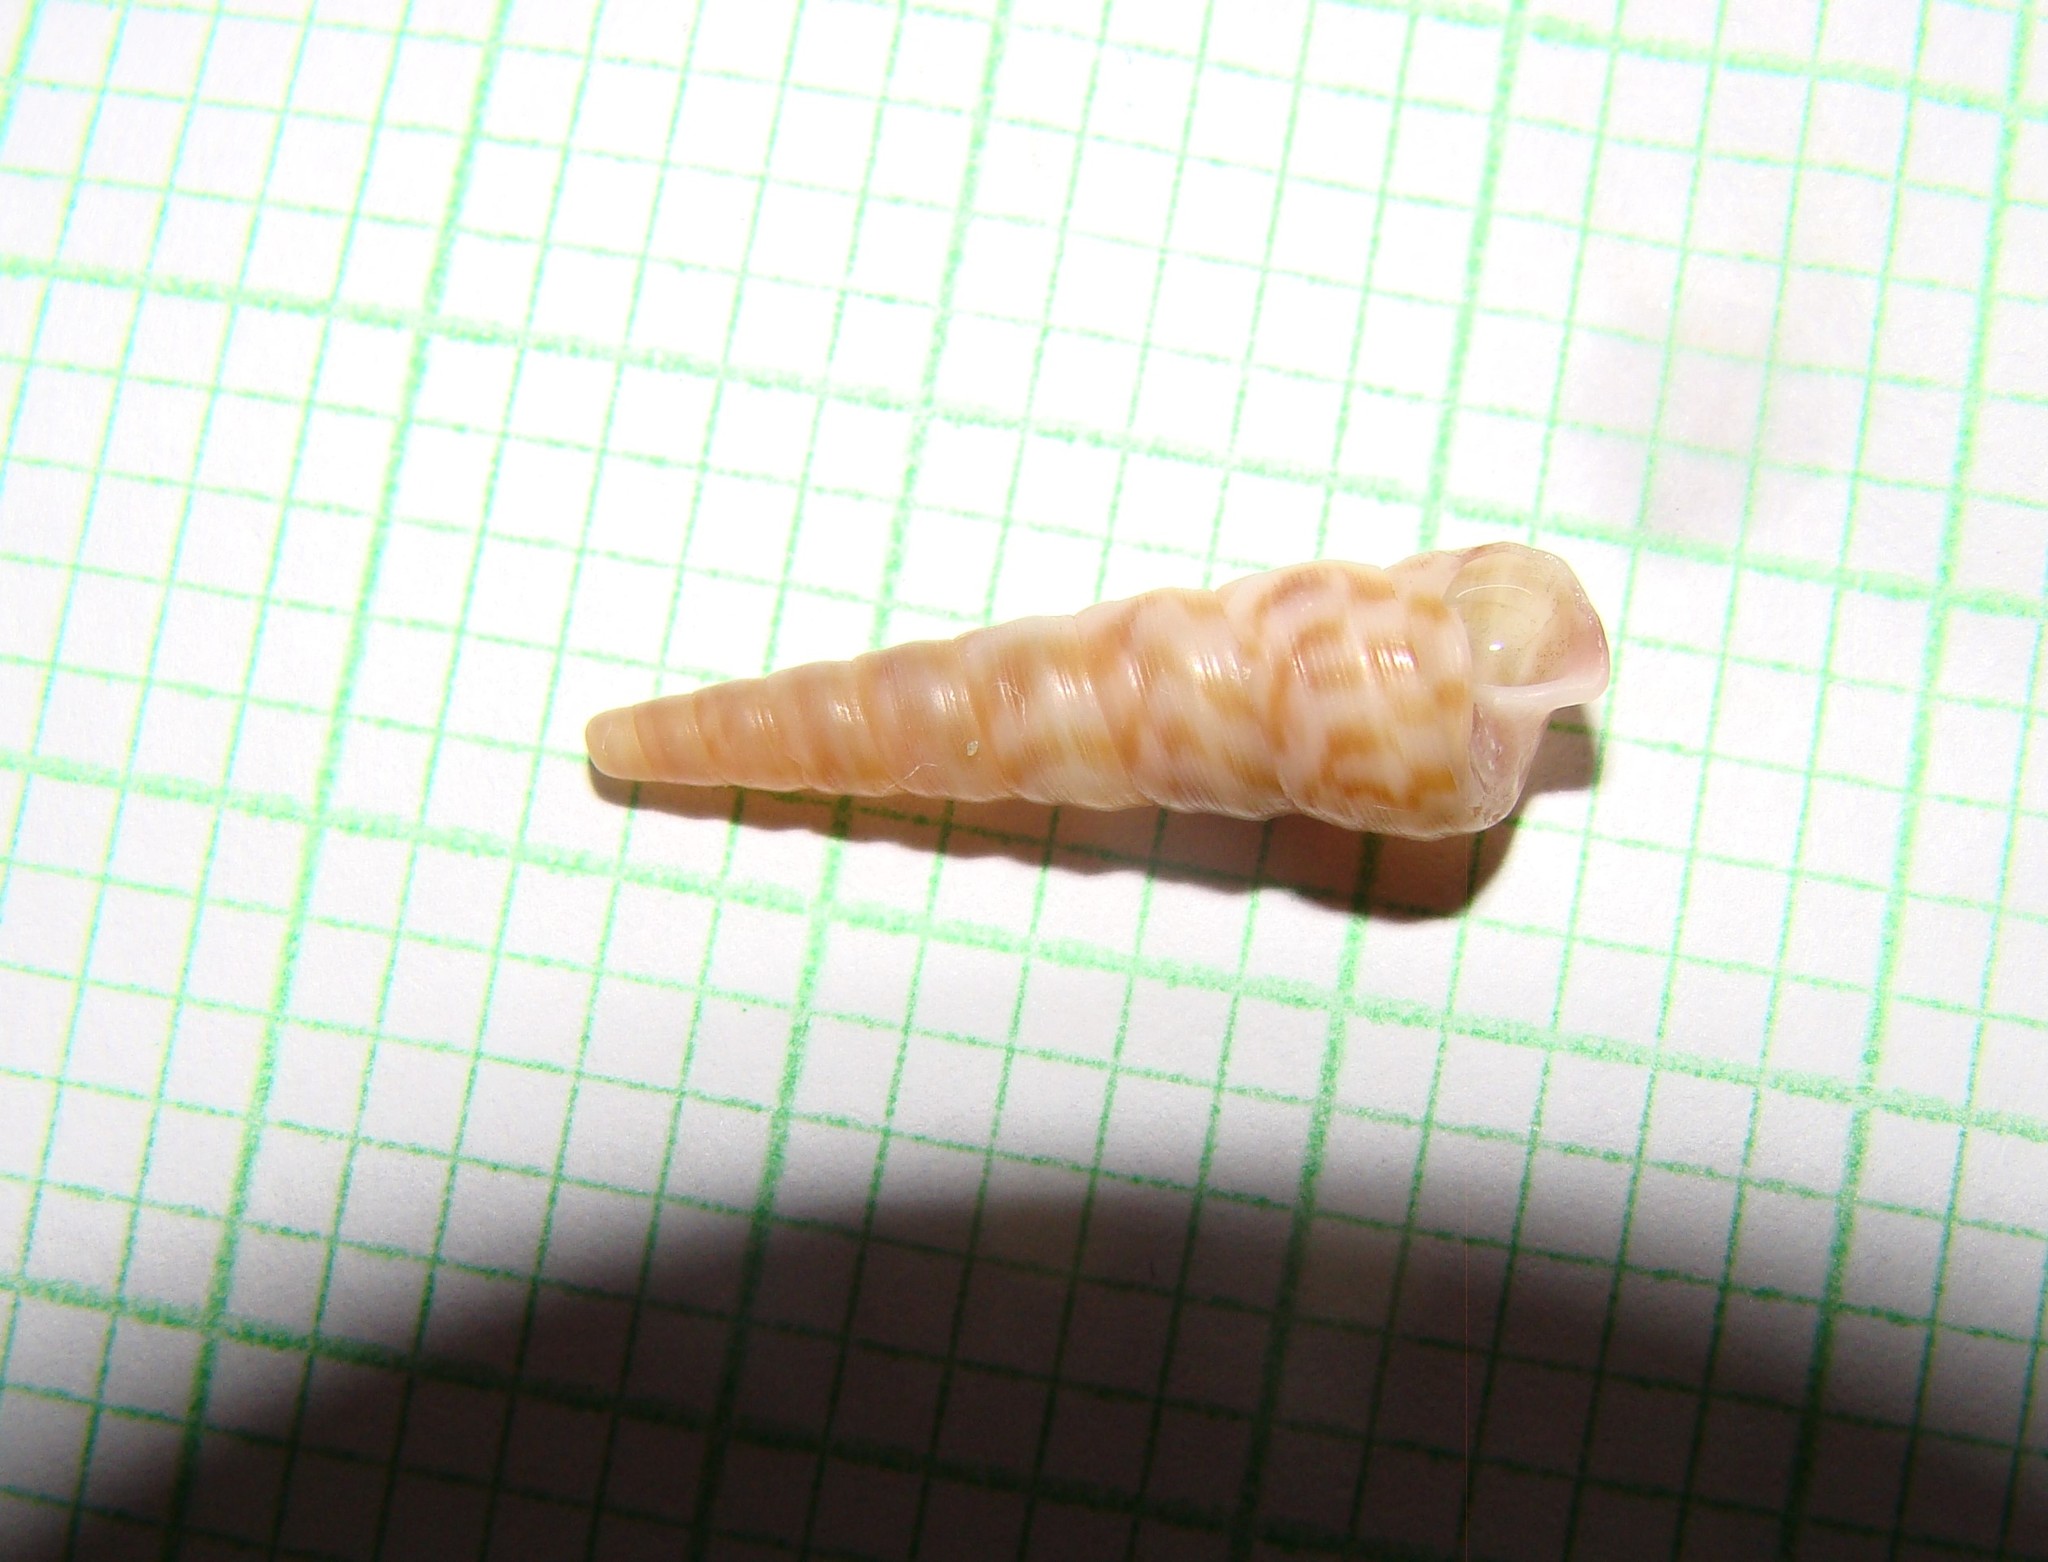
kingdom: Animalia
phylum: Mollusca
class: Gastropoda
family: Turritellidae
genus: Stiracolpus
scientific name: Stiracolpus pagoda
